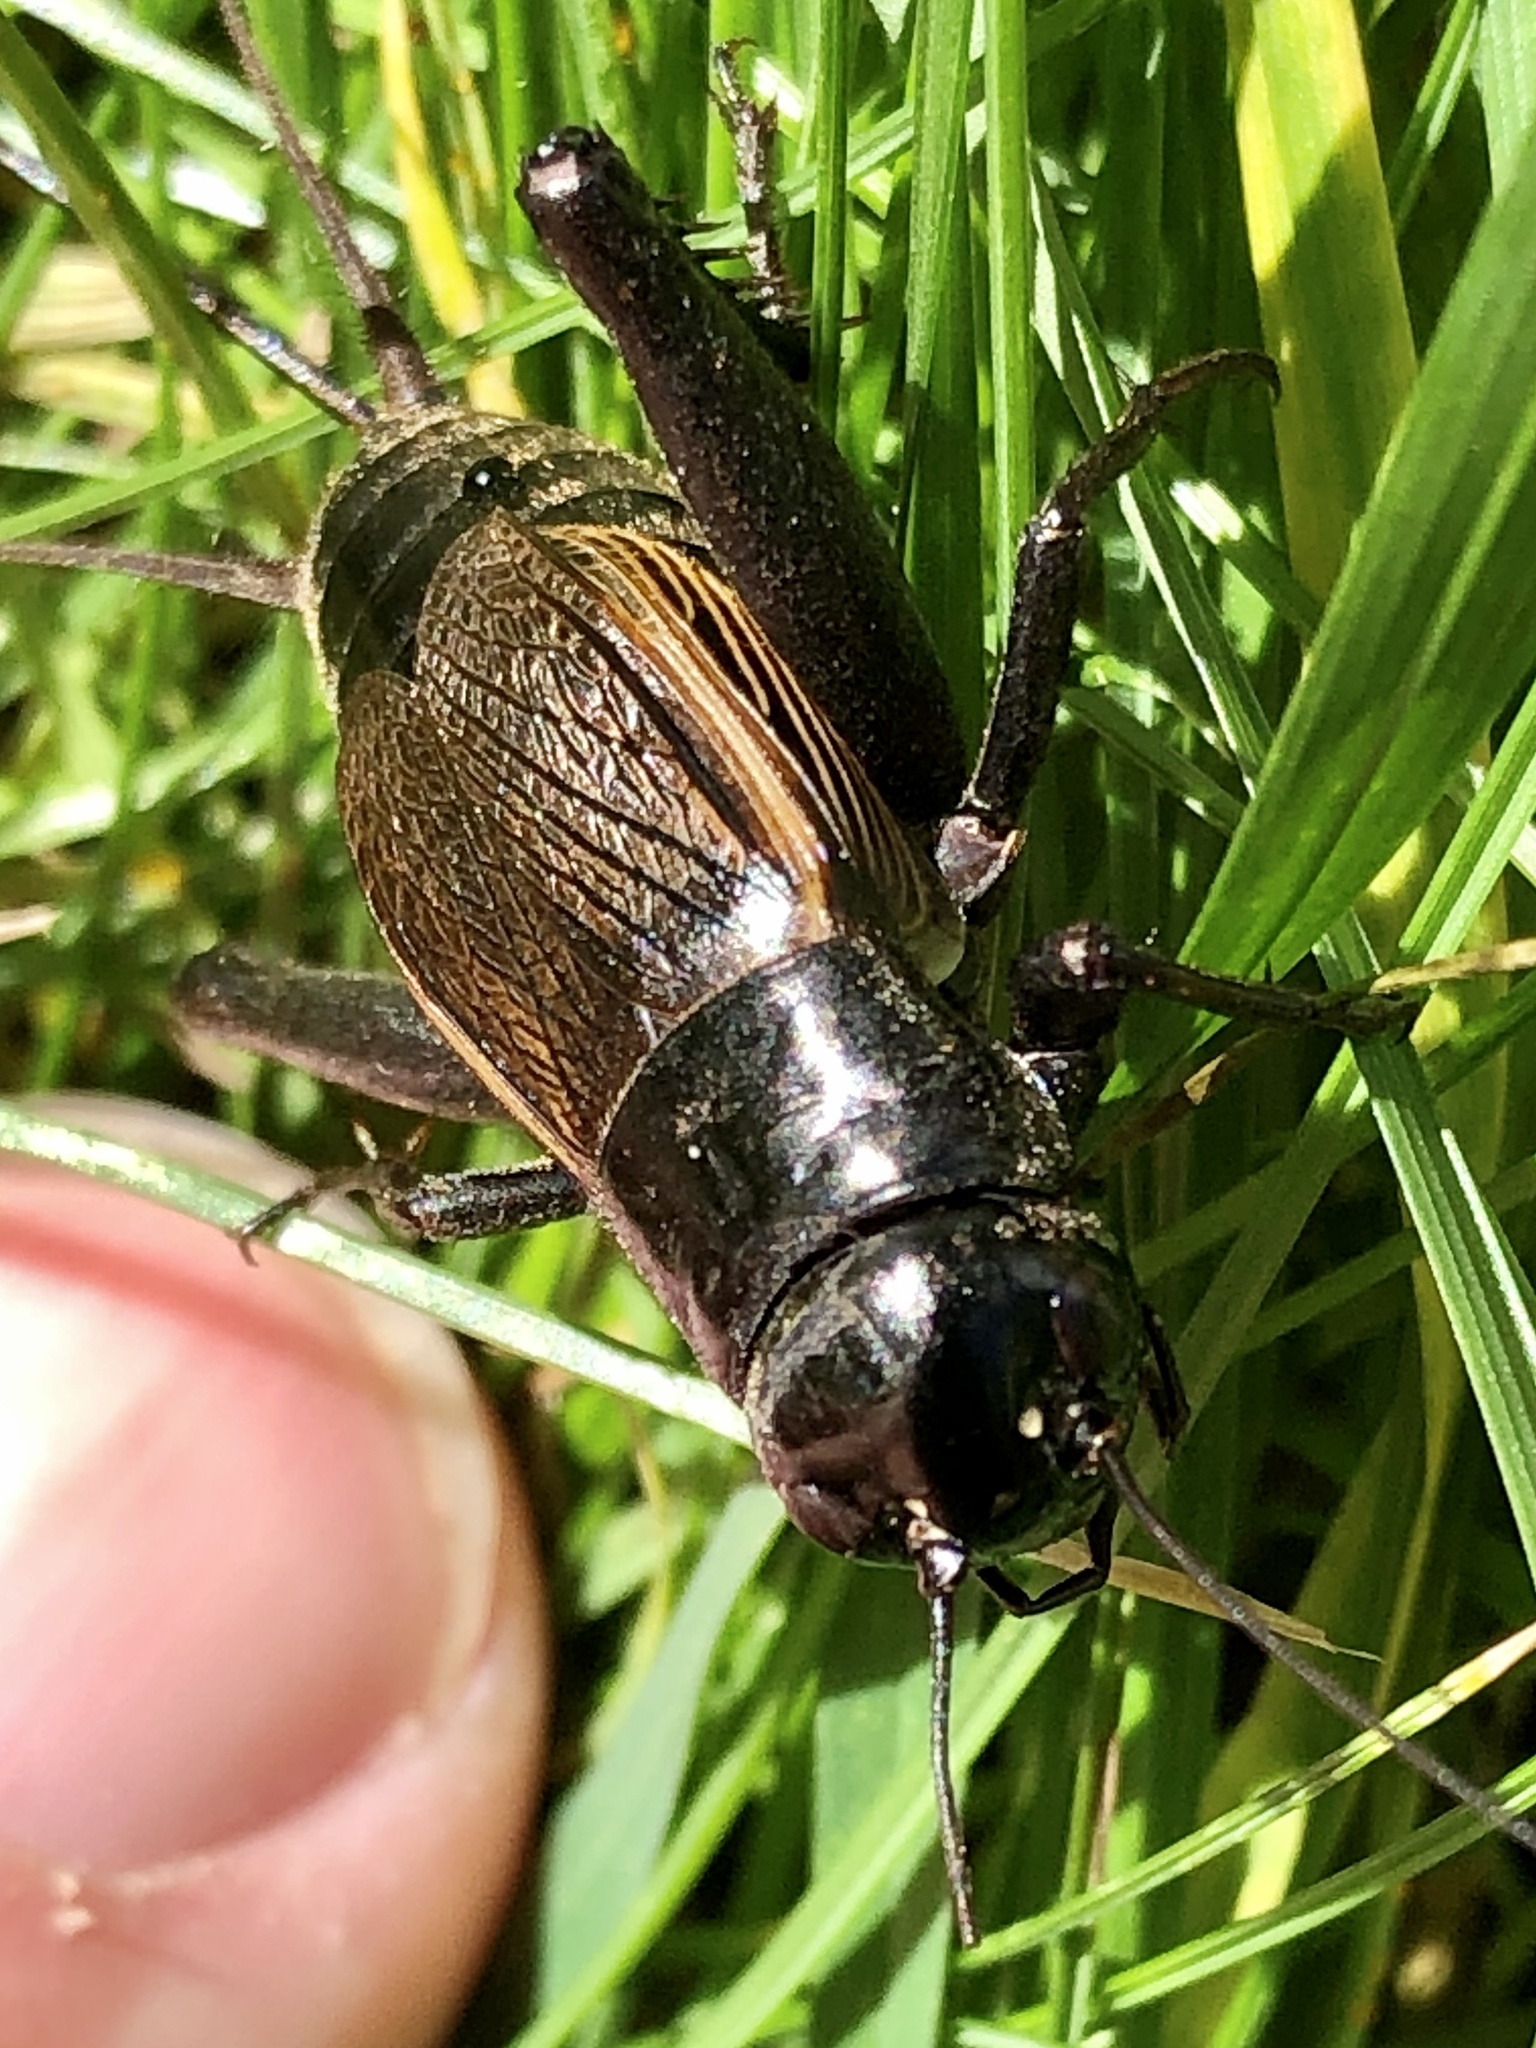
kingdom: Animalia
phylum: Arthropoda
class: Insecta
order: Orthoptera
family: Gryllidae
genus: Gryllus
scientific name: Gryllus pennsylvanicus
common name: Fall field cricket
